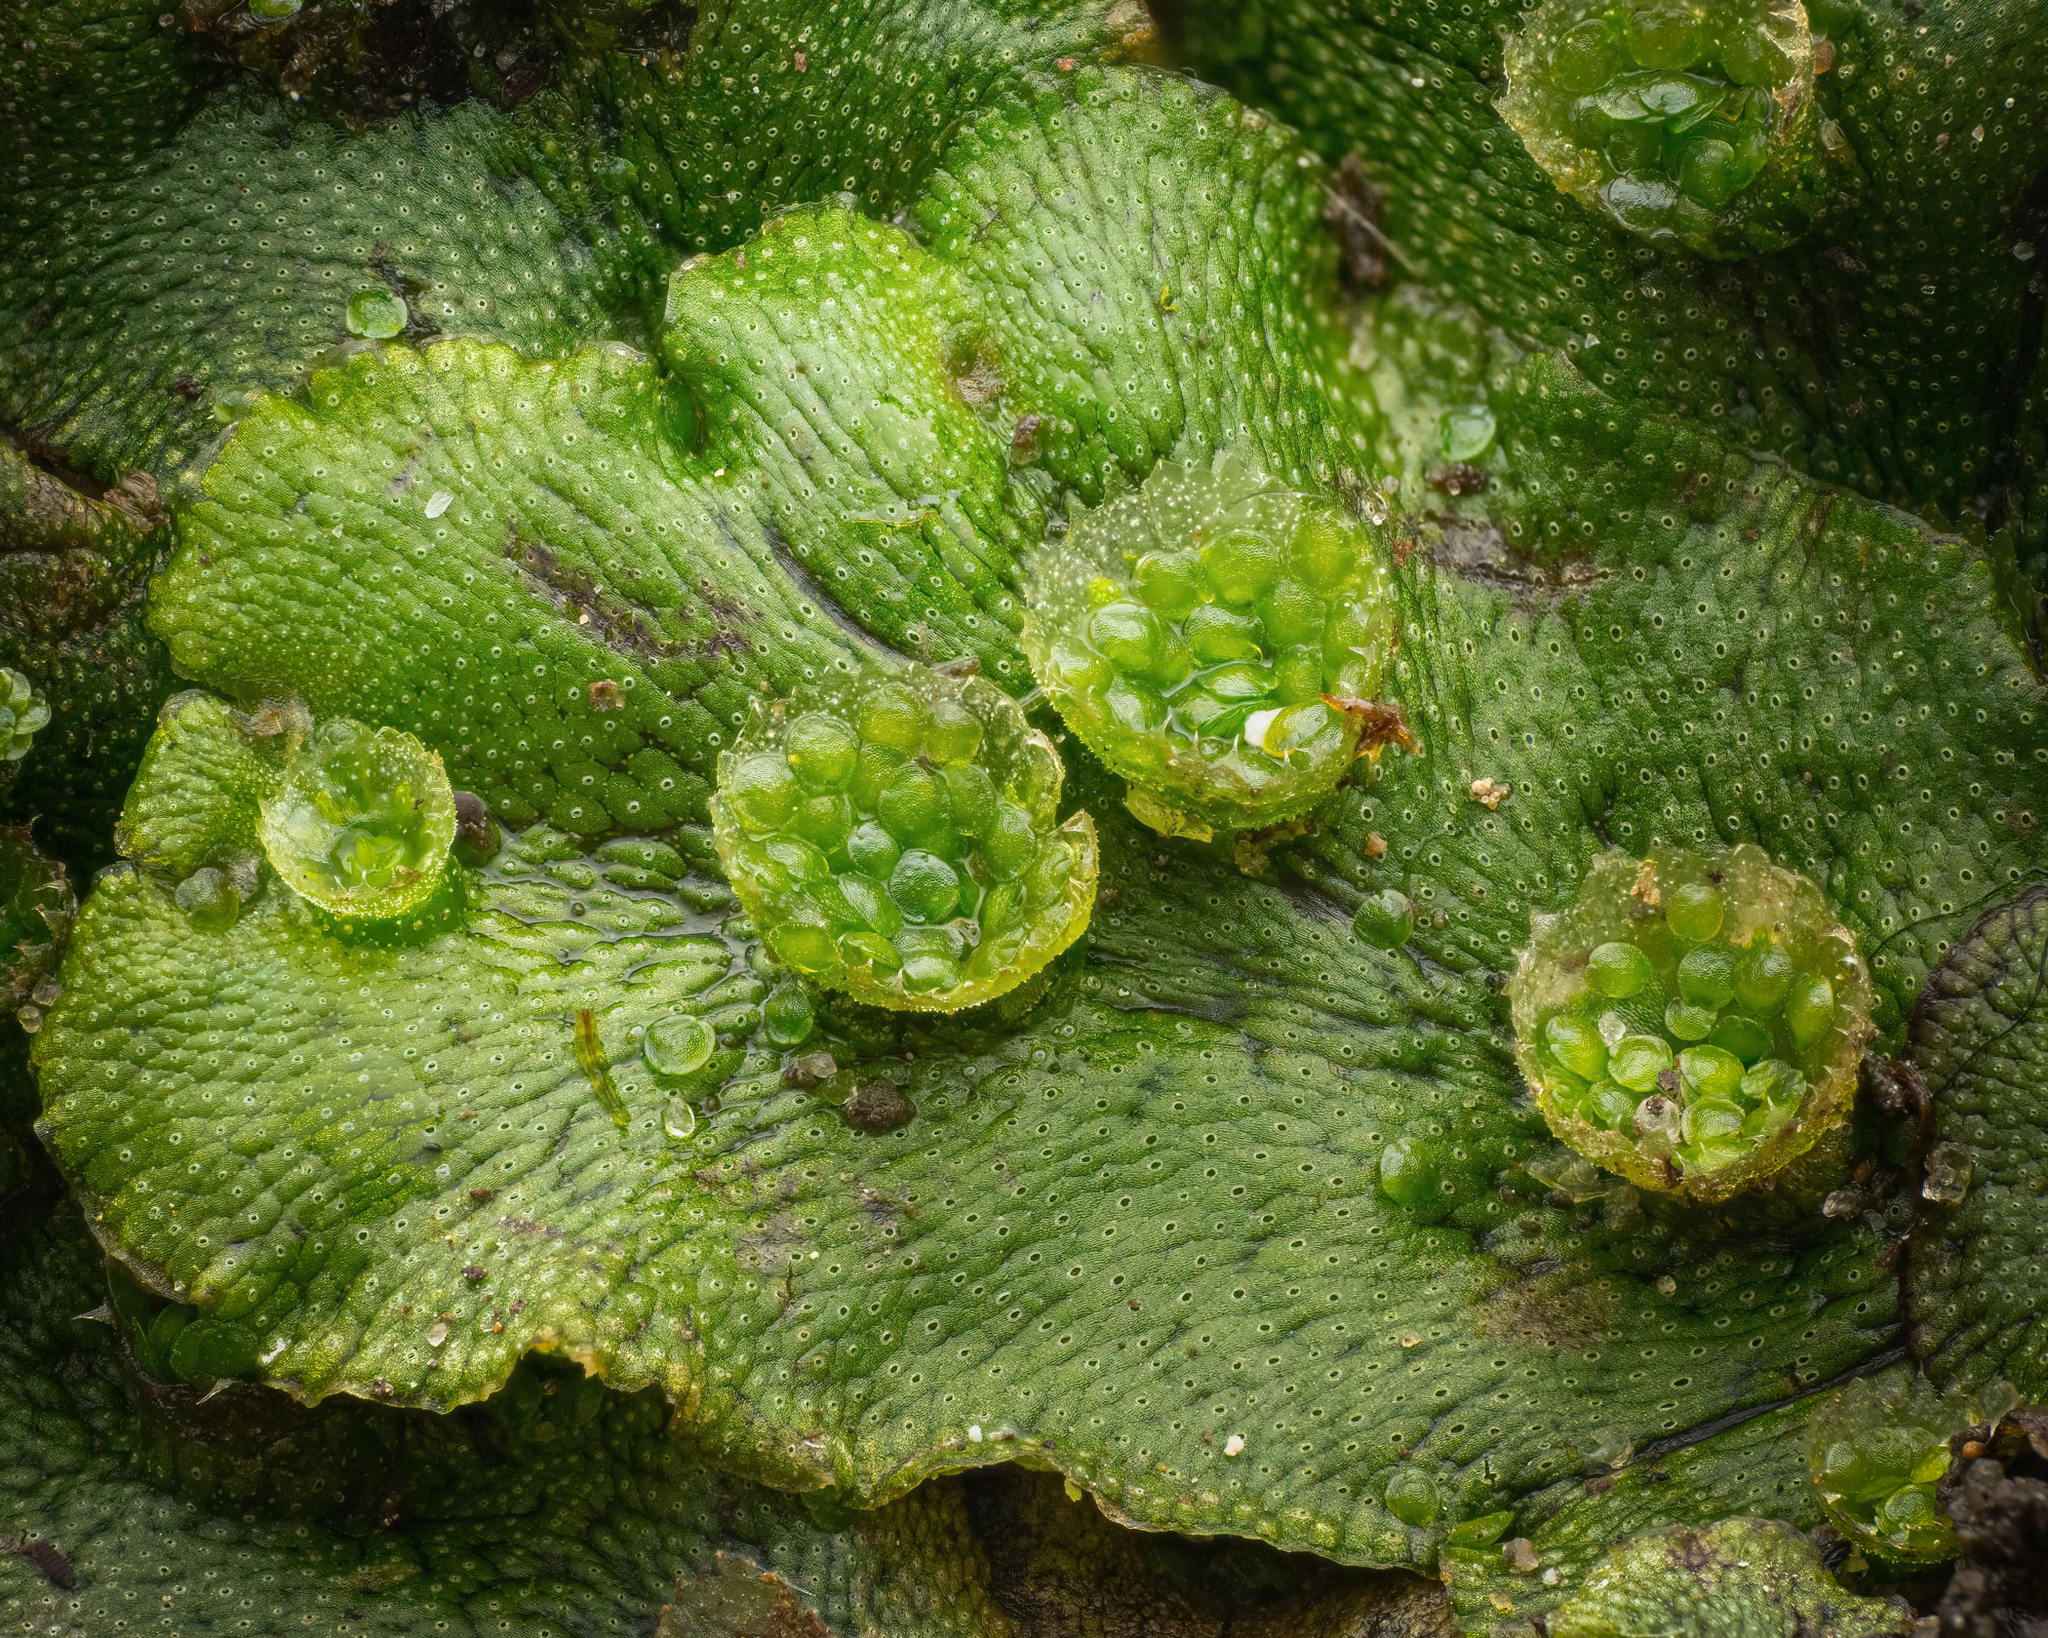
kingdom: Plantae
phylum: Marchantiophyta
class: Marchantiopsida
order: Marchantiales
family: Marchantiaceae
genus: Marchantia
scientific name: Marchantia polymorpha
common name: Common liverwort
